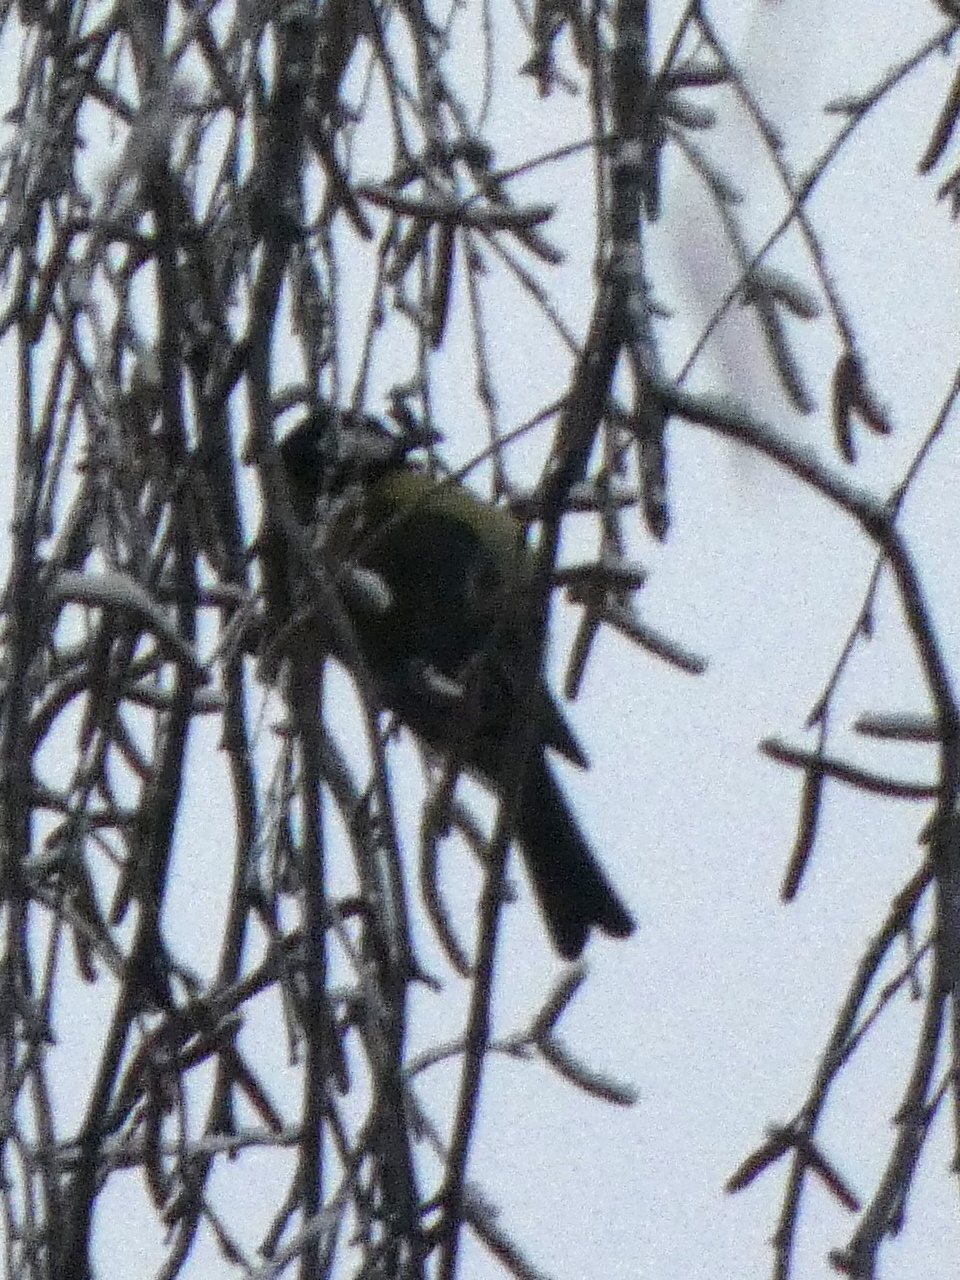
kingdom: Animalia
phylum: Chordata
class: Aves
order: Passeriformes
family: Paridae
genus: Parus
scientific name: Parus major
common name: Great tit
